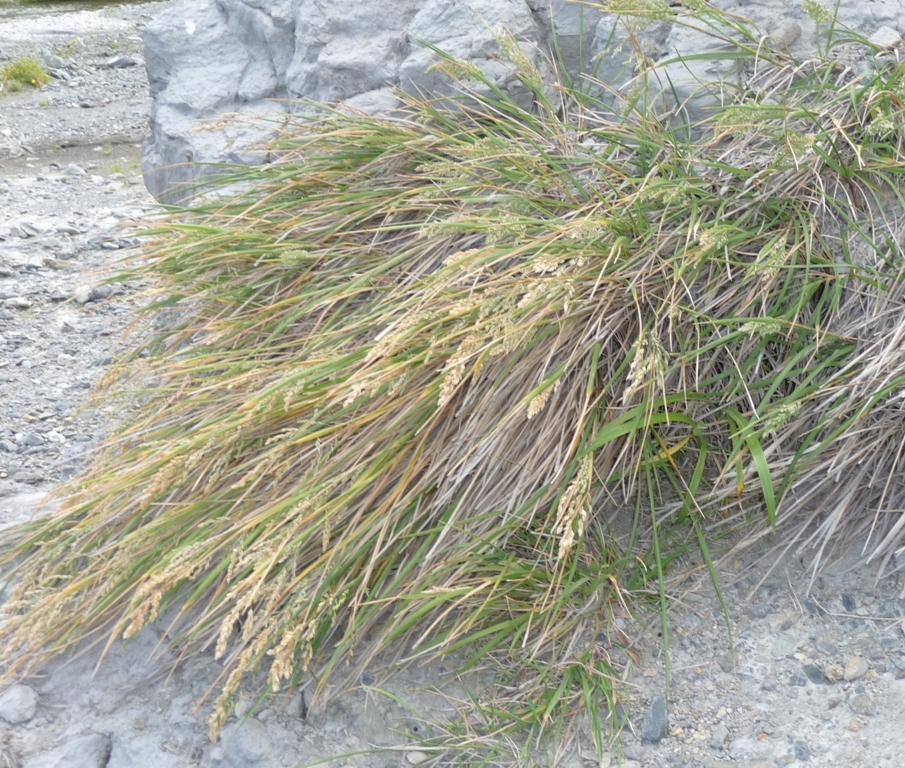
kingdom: Plantae
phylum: Tracheophyta
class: Liliopsida
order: Poales
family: Poaceae
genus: Poa
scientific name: Poa anceps
